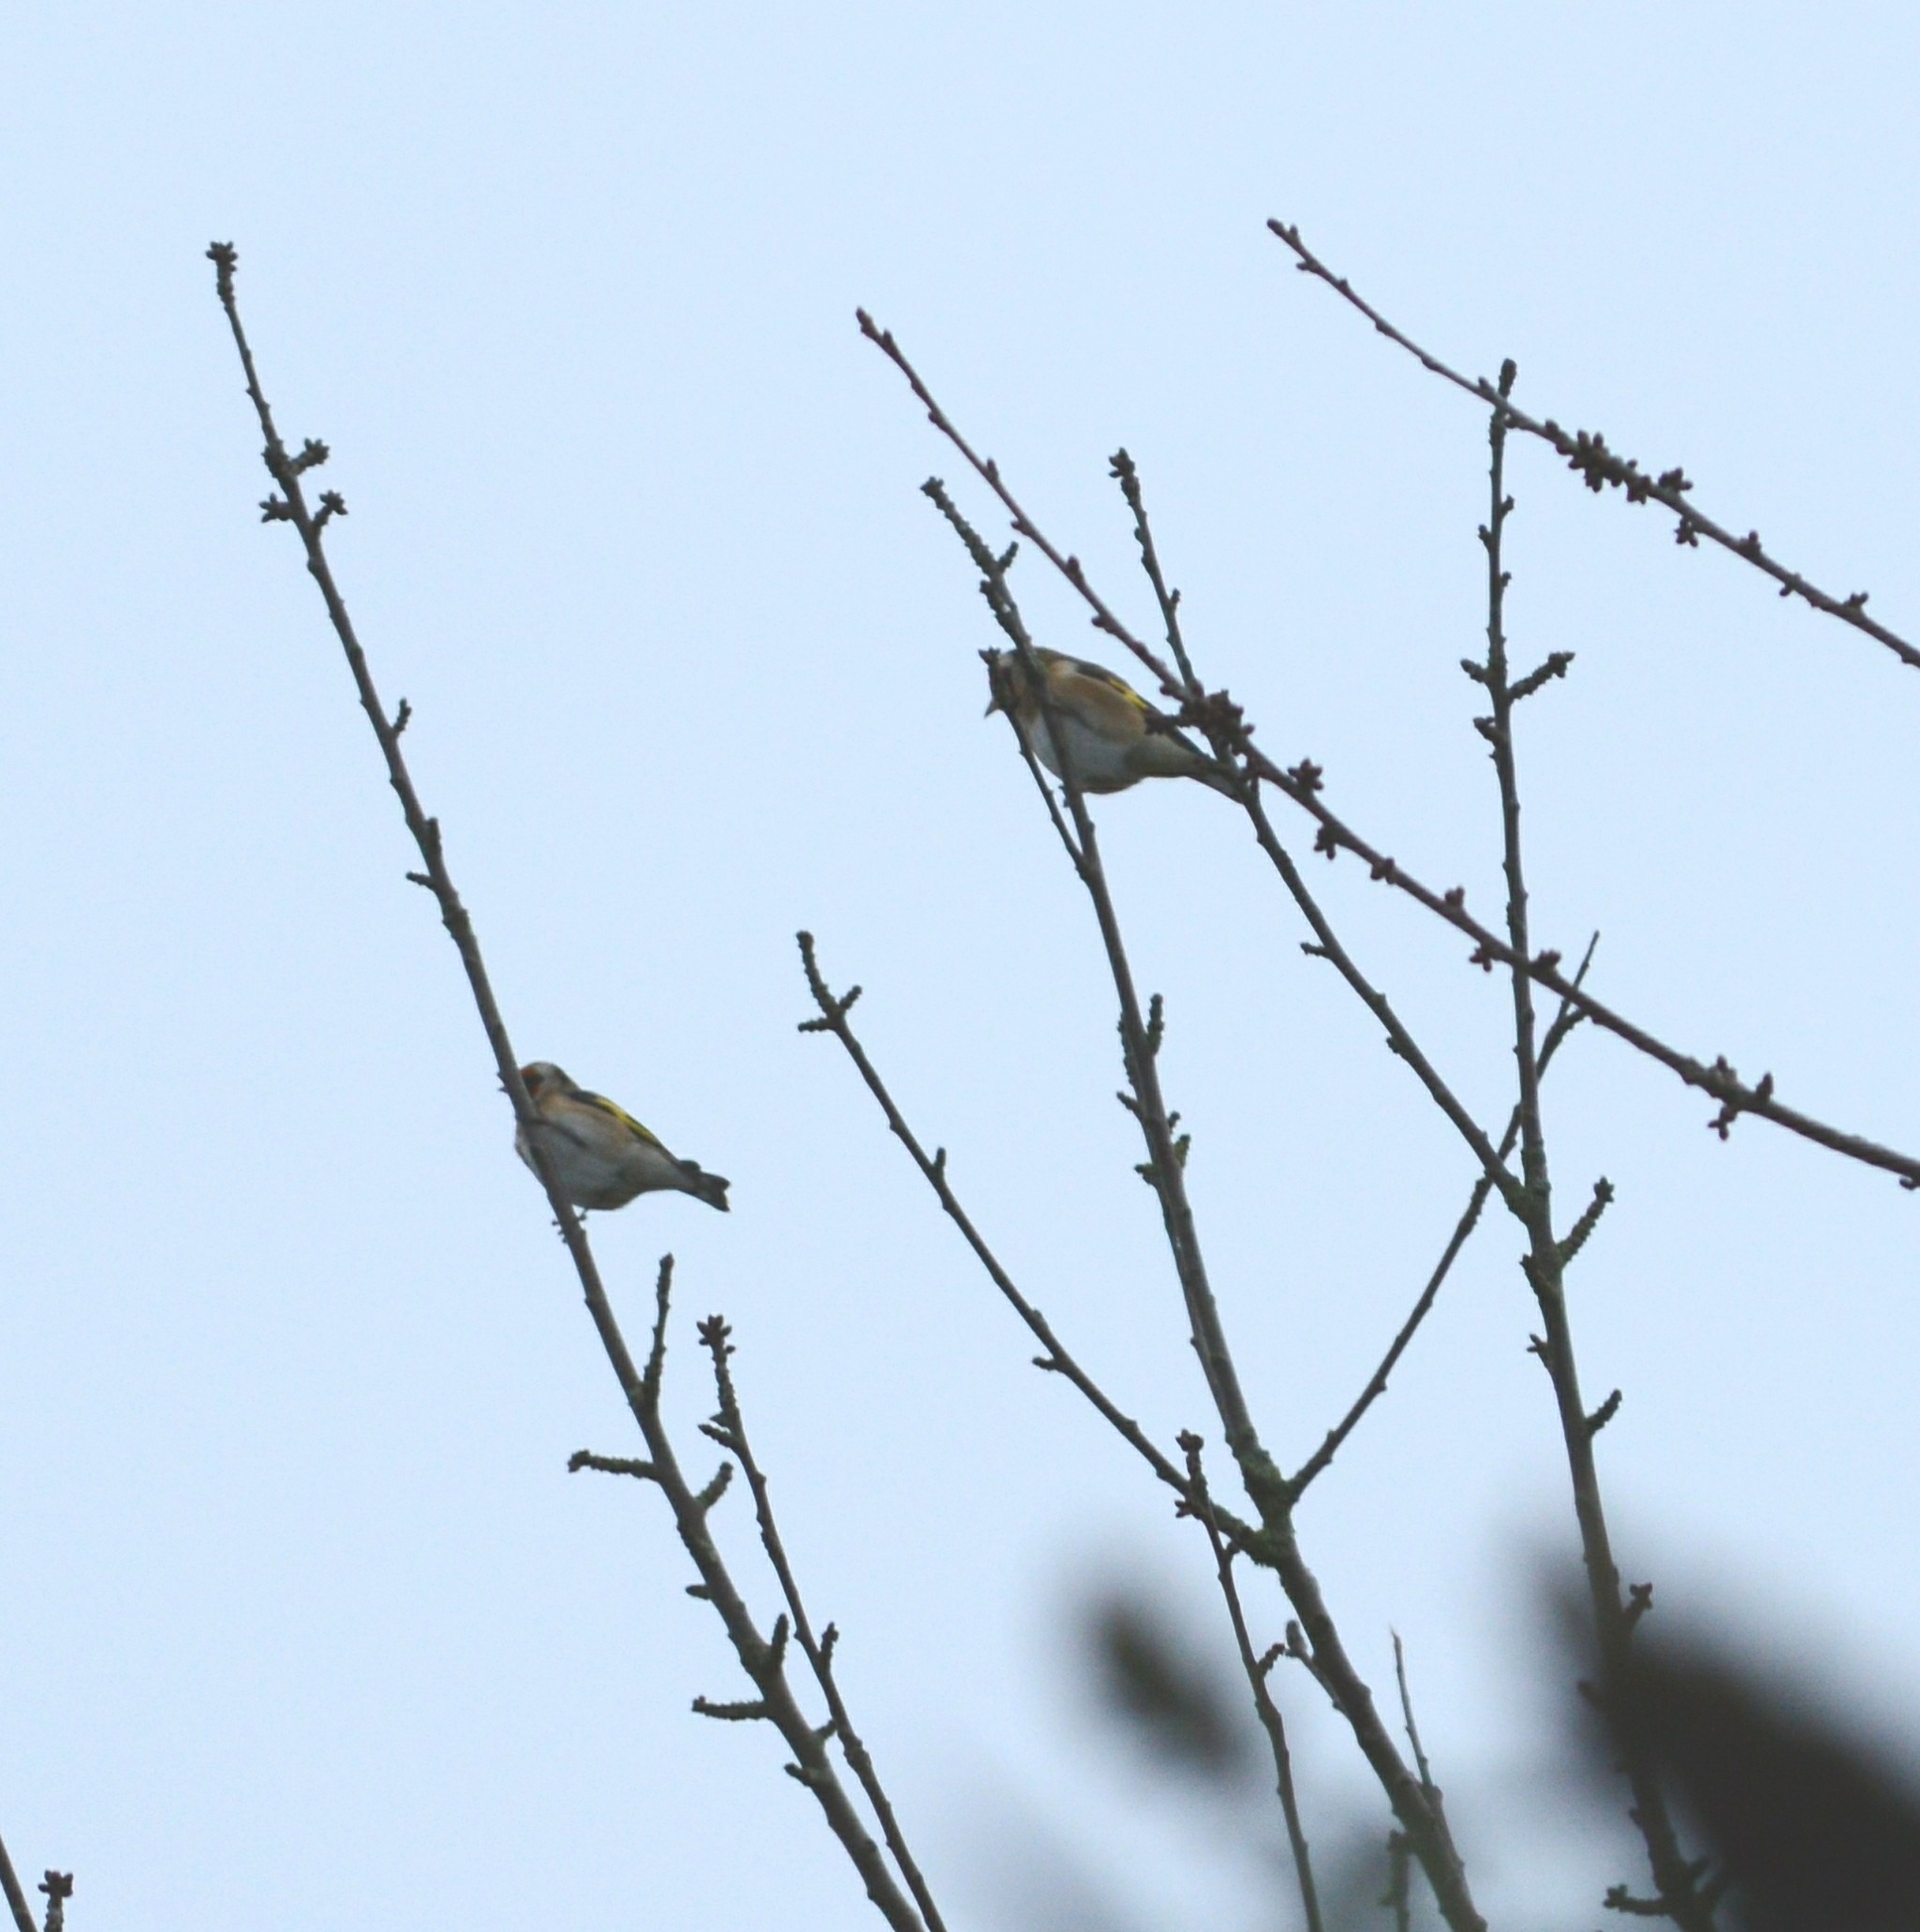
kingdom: Animalia
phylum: Chordata
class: Aves
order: Passeriformes
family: Fringillidae
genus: Carduelis
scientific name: Carduelis carduelis
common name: European goldfinch
